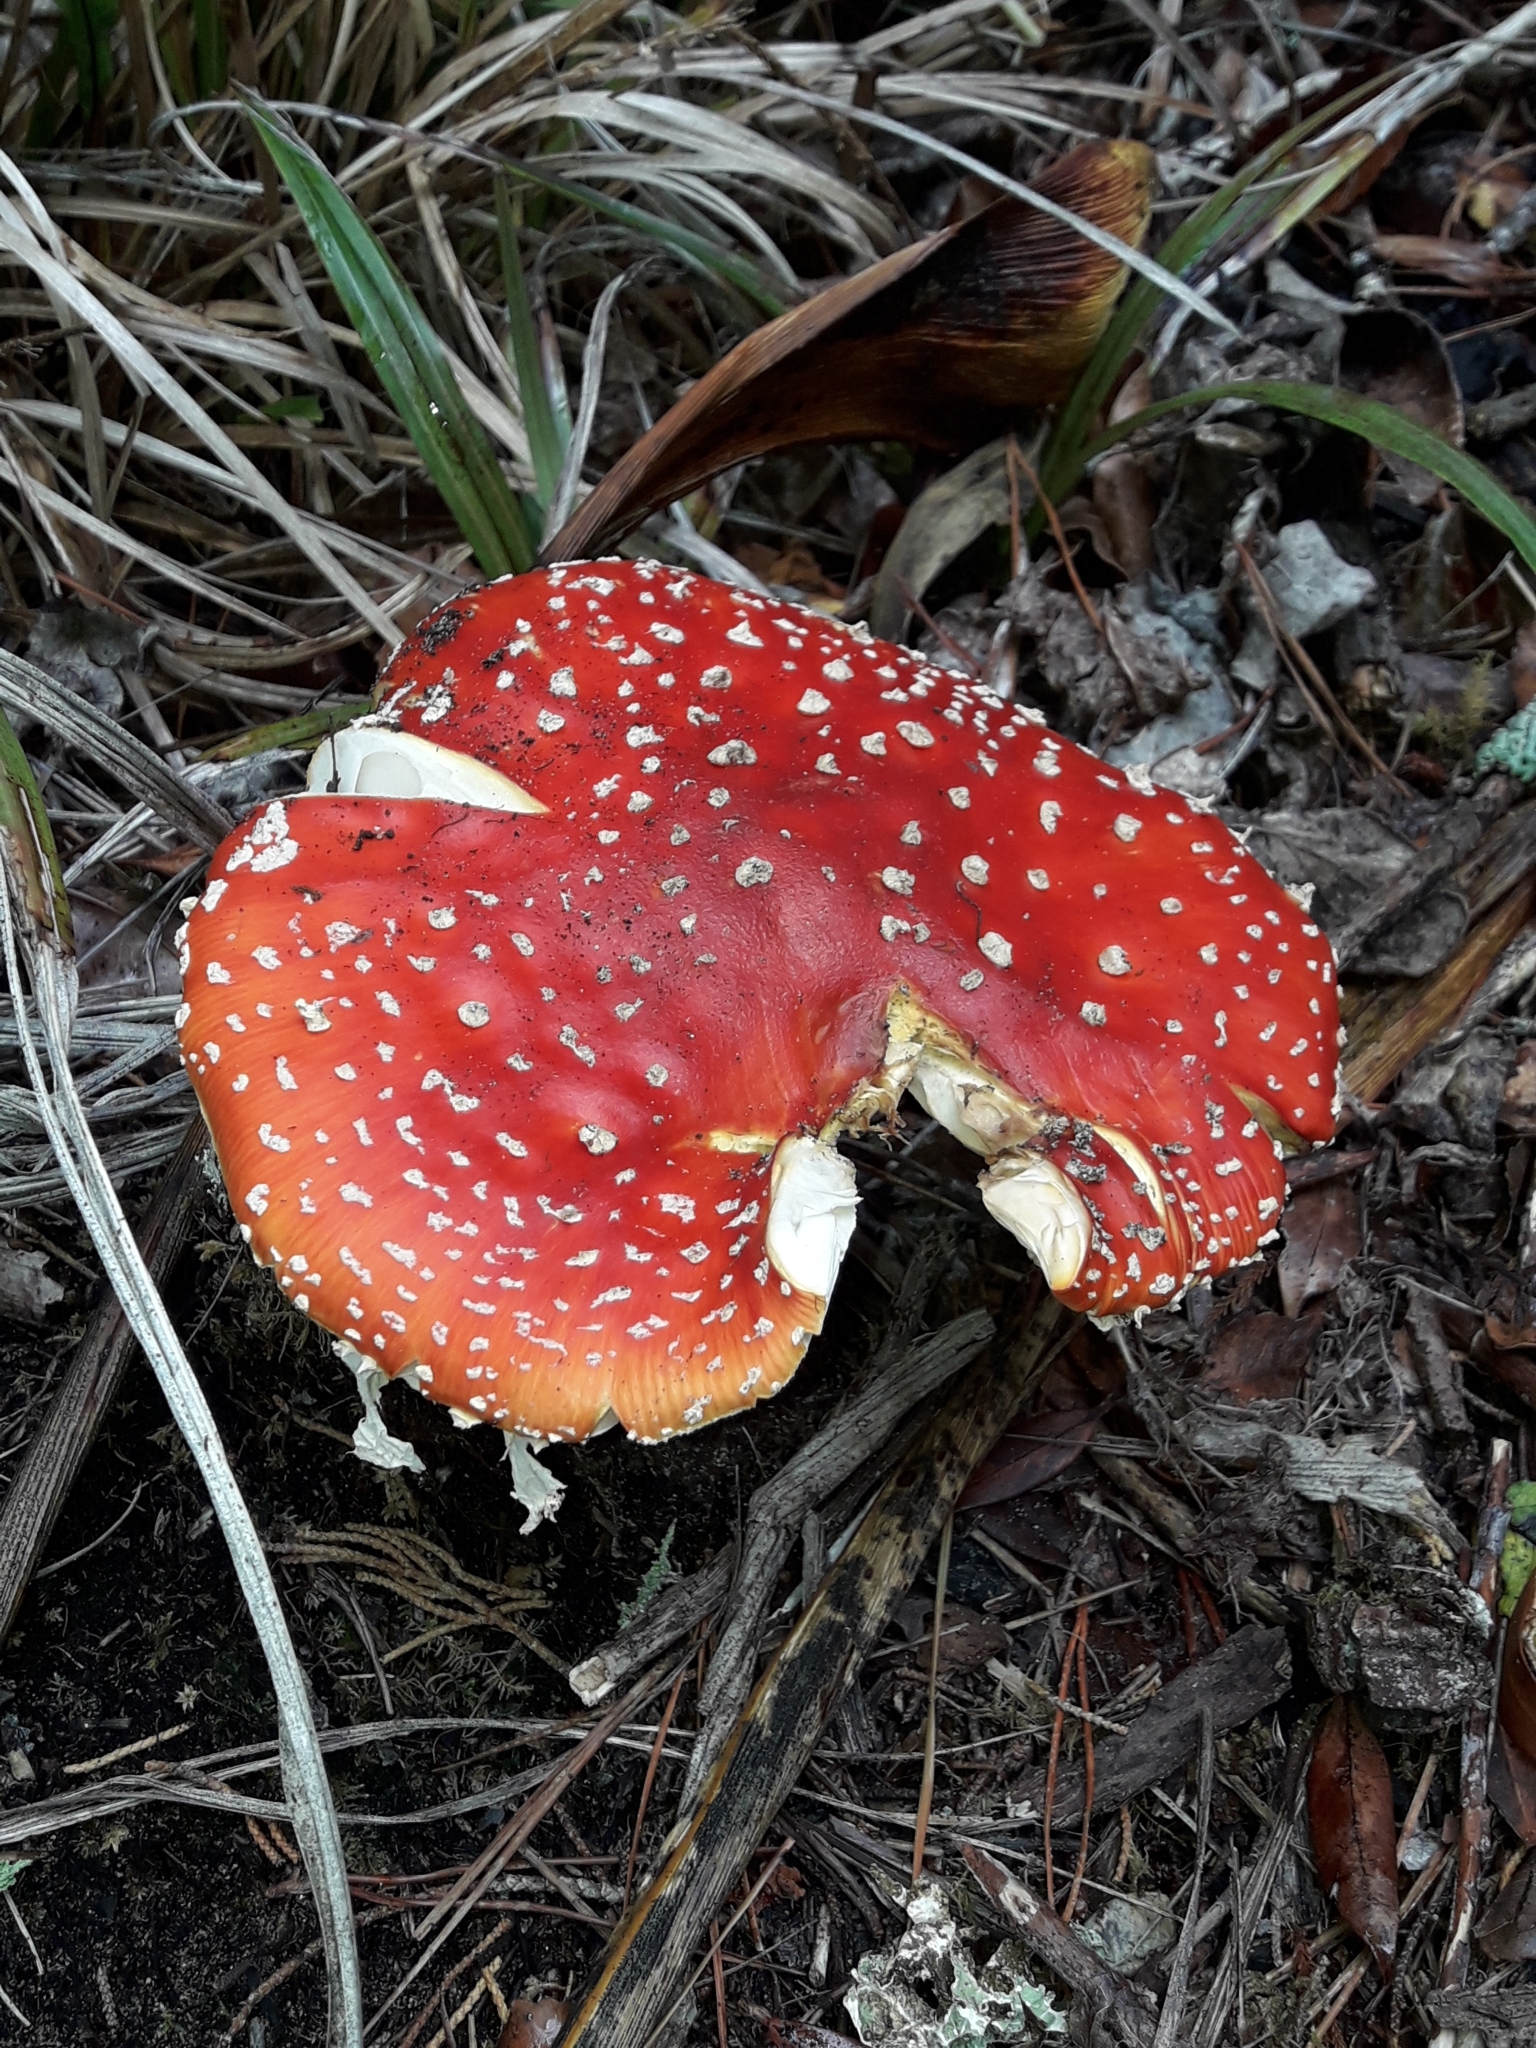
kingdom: Fungi
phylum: Basidiomycota
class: Agaricomycetes
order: Agaricales
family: Amanitaceae
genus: Amanita
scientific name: Amanita muscaria
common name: Fly agaric
